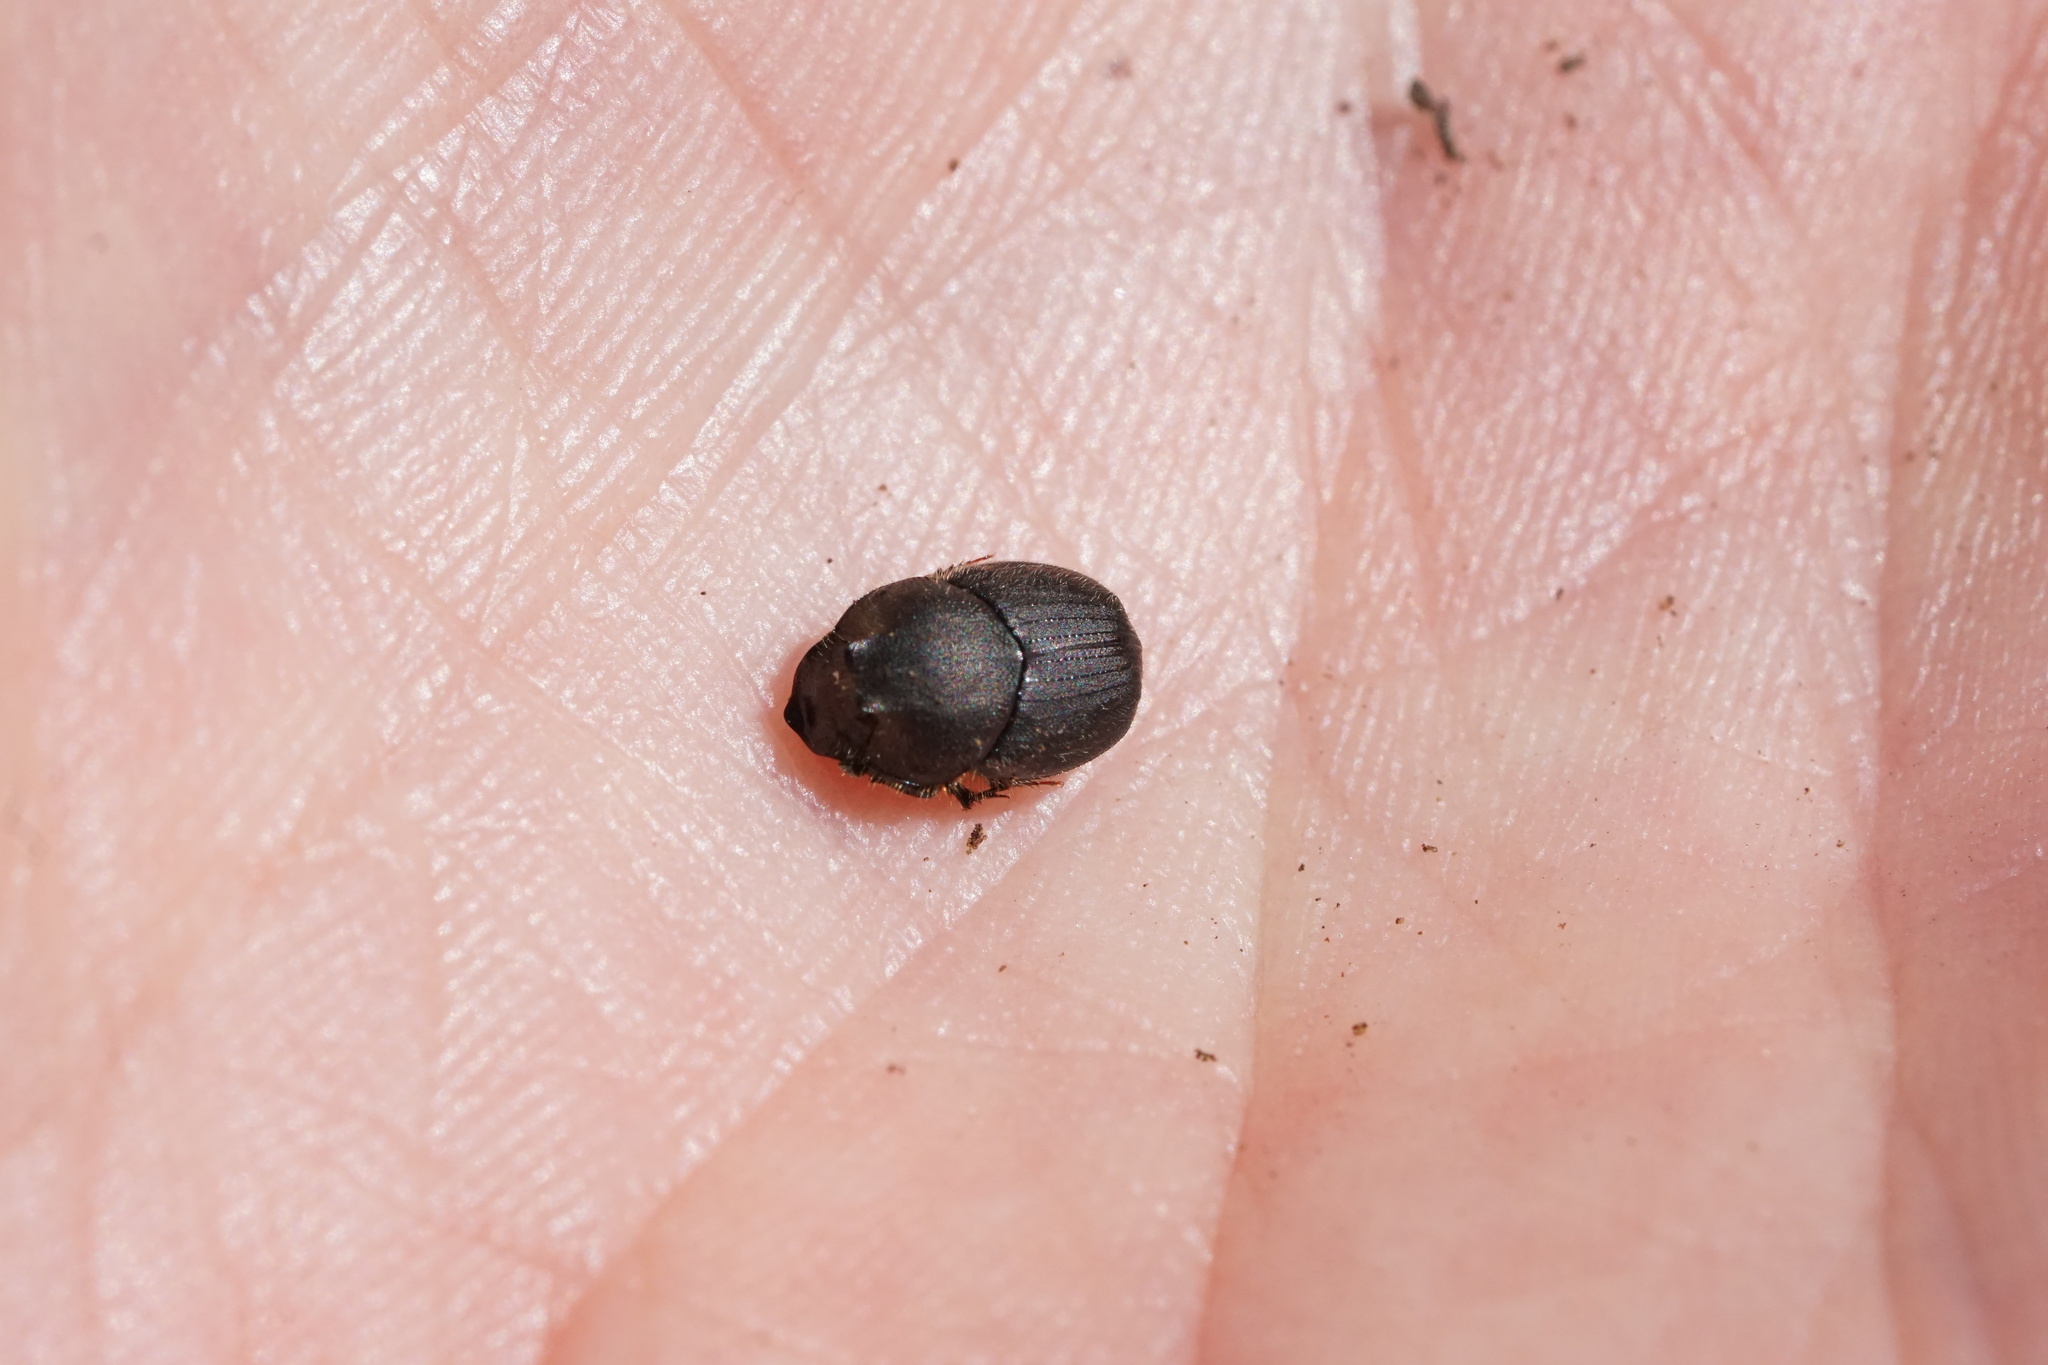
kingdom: Animalia
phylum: Arthropoda
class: Insecta
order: Coleoptera
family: Scarabaeidae
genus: Onthophagus
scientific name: Onthophagus hecate
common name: Scooped scarab
